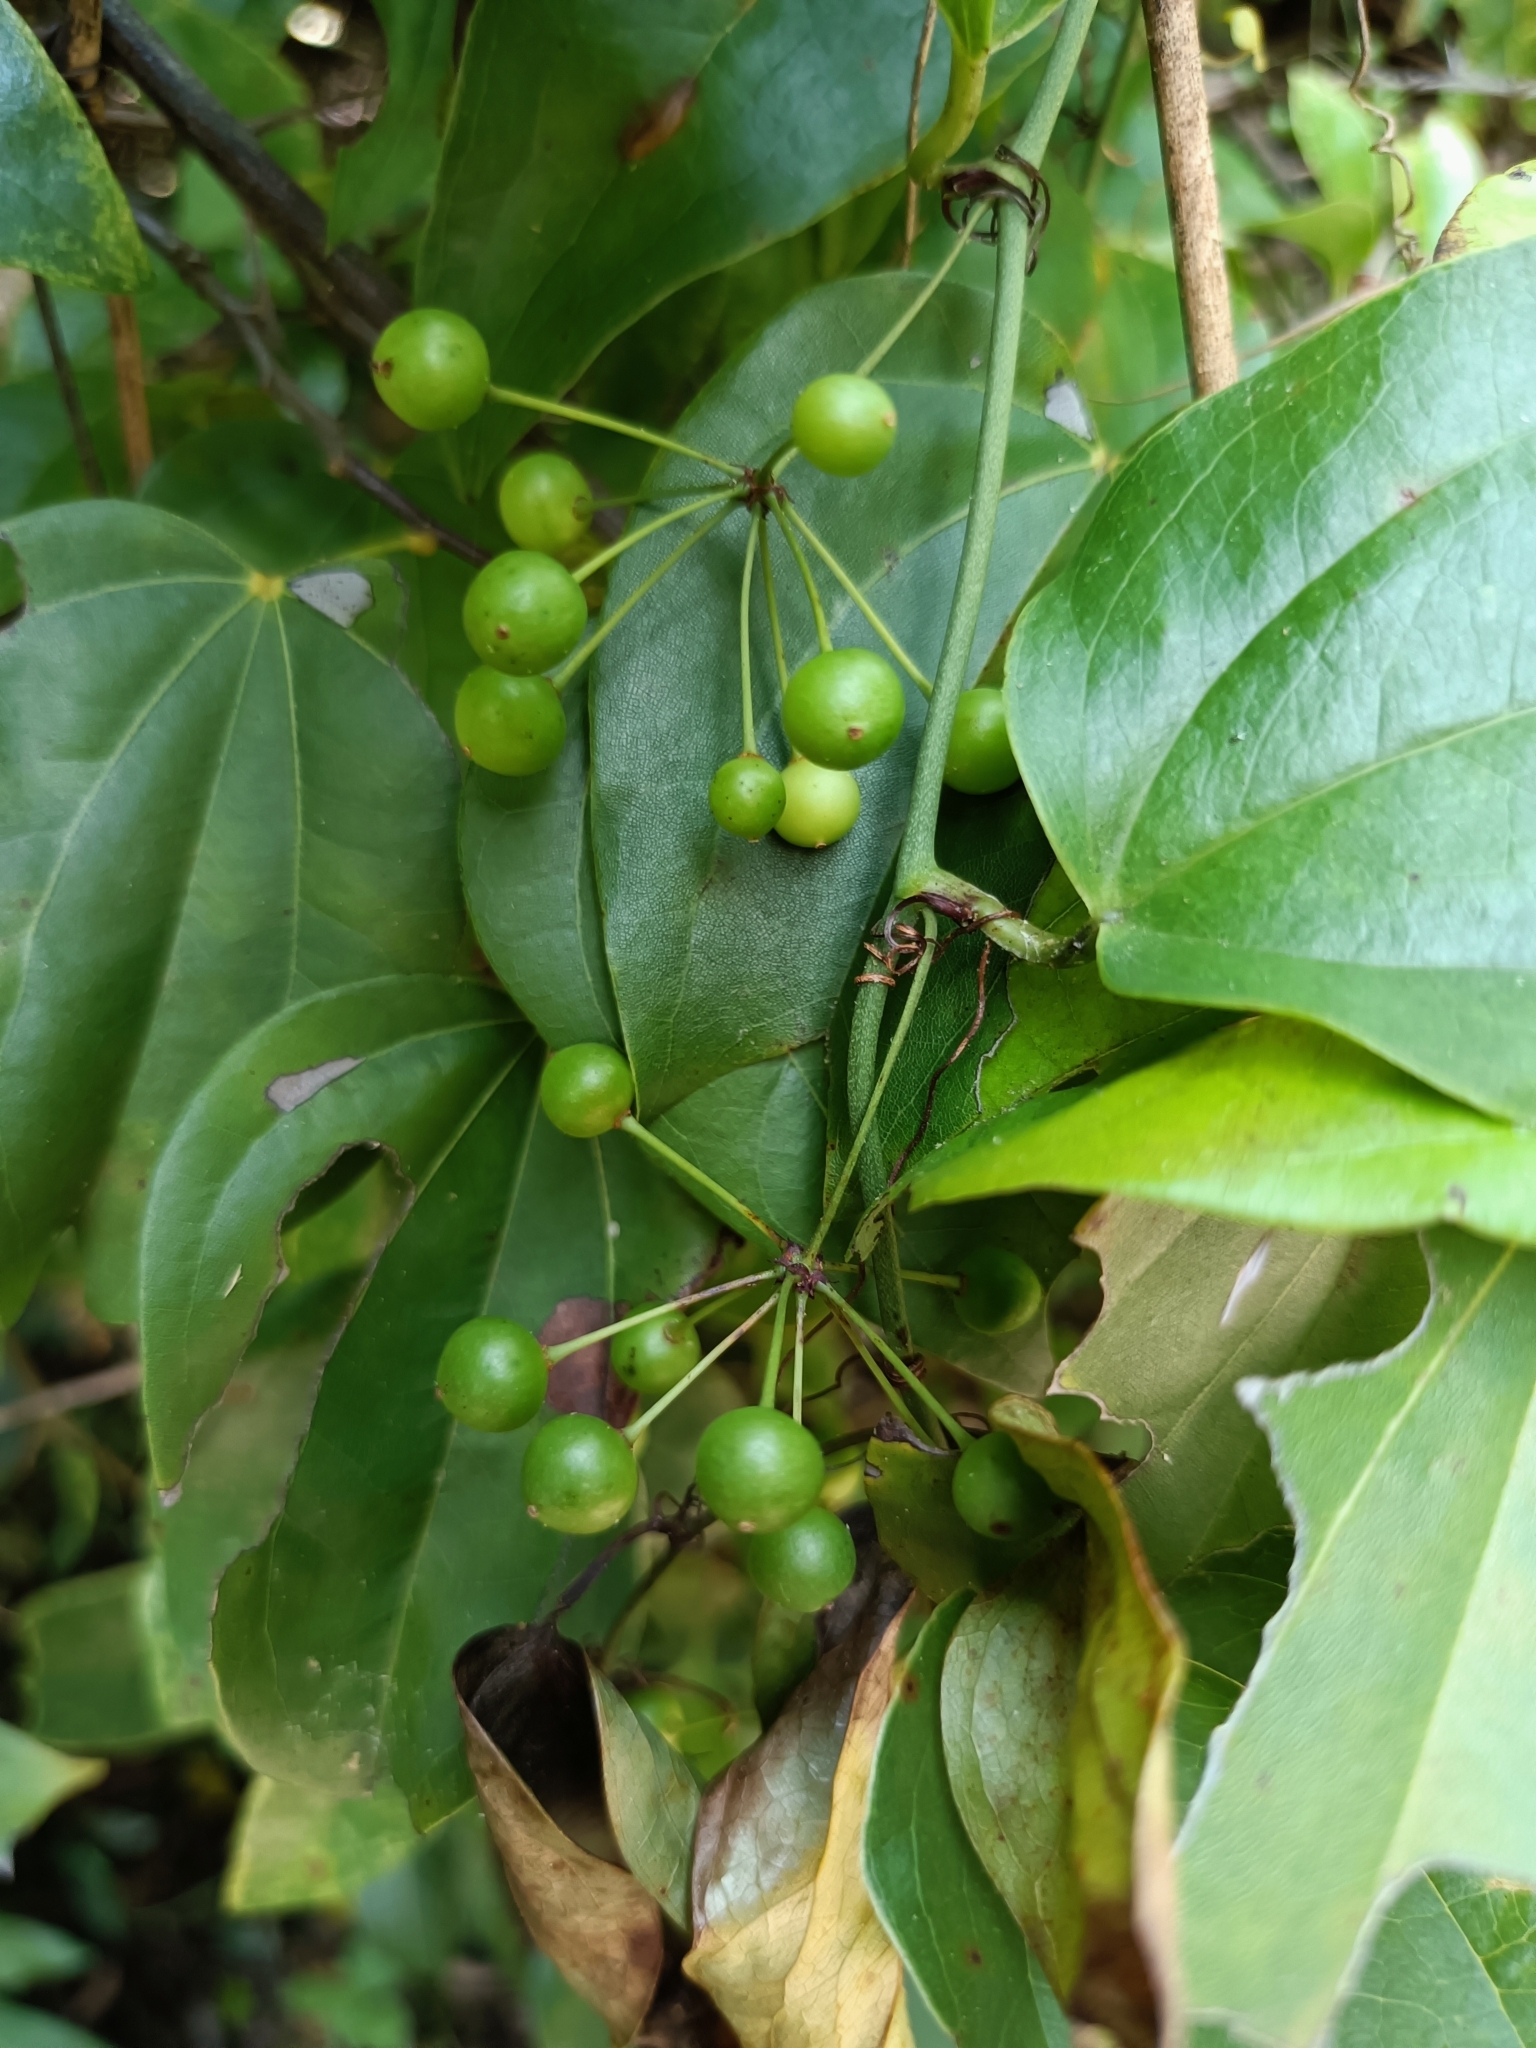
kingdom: Plantae
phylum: Tracheophyta
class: Liliopsida
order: Liliales
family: Smilacaceae
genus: Smilax
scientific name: Smilax china
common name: Chinaroot
